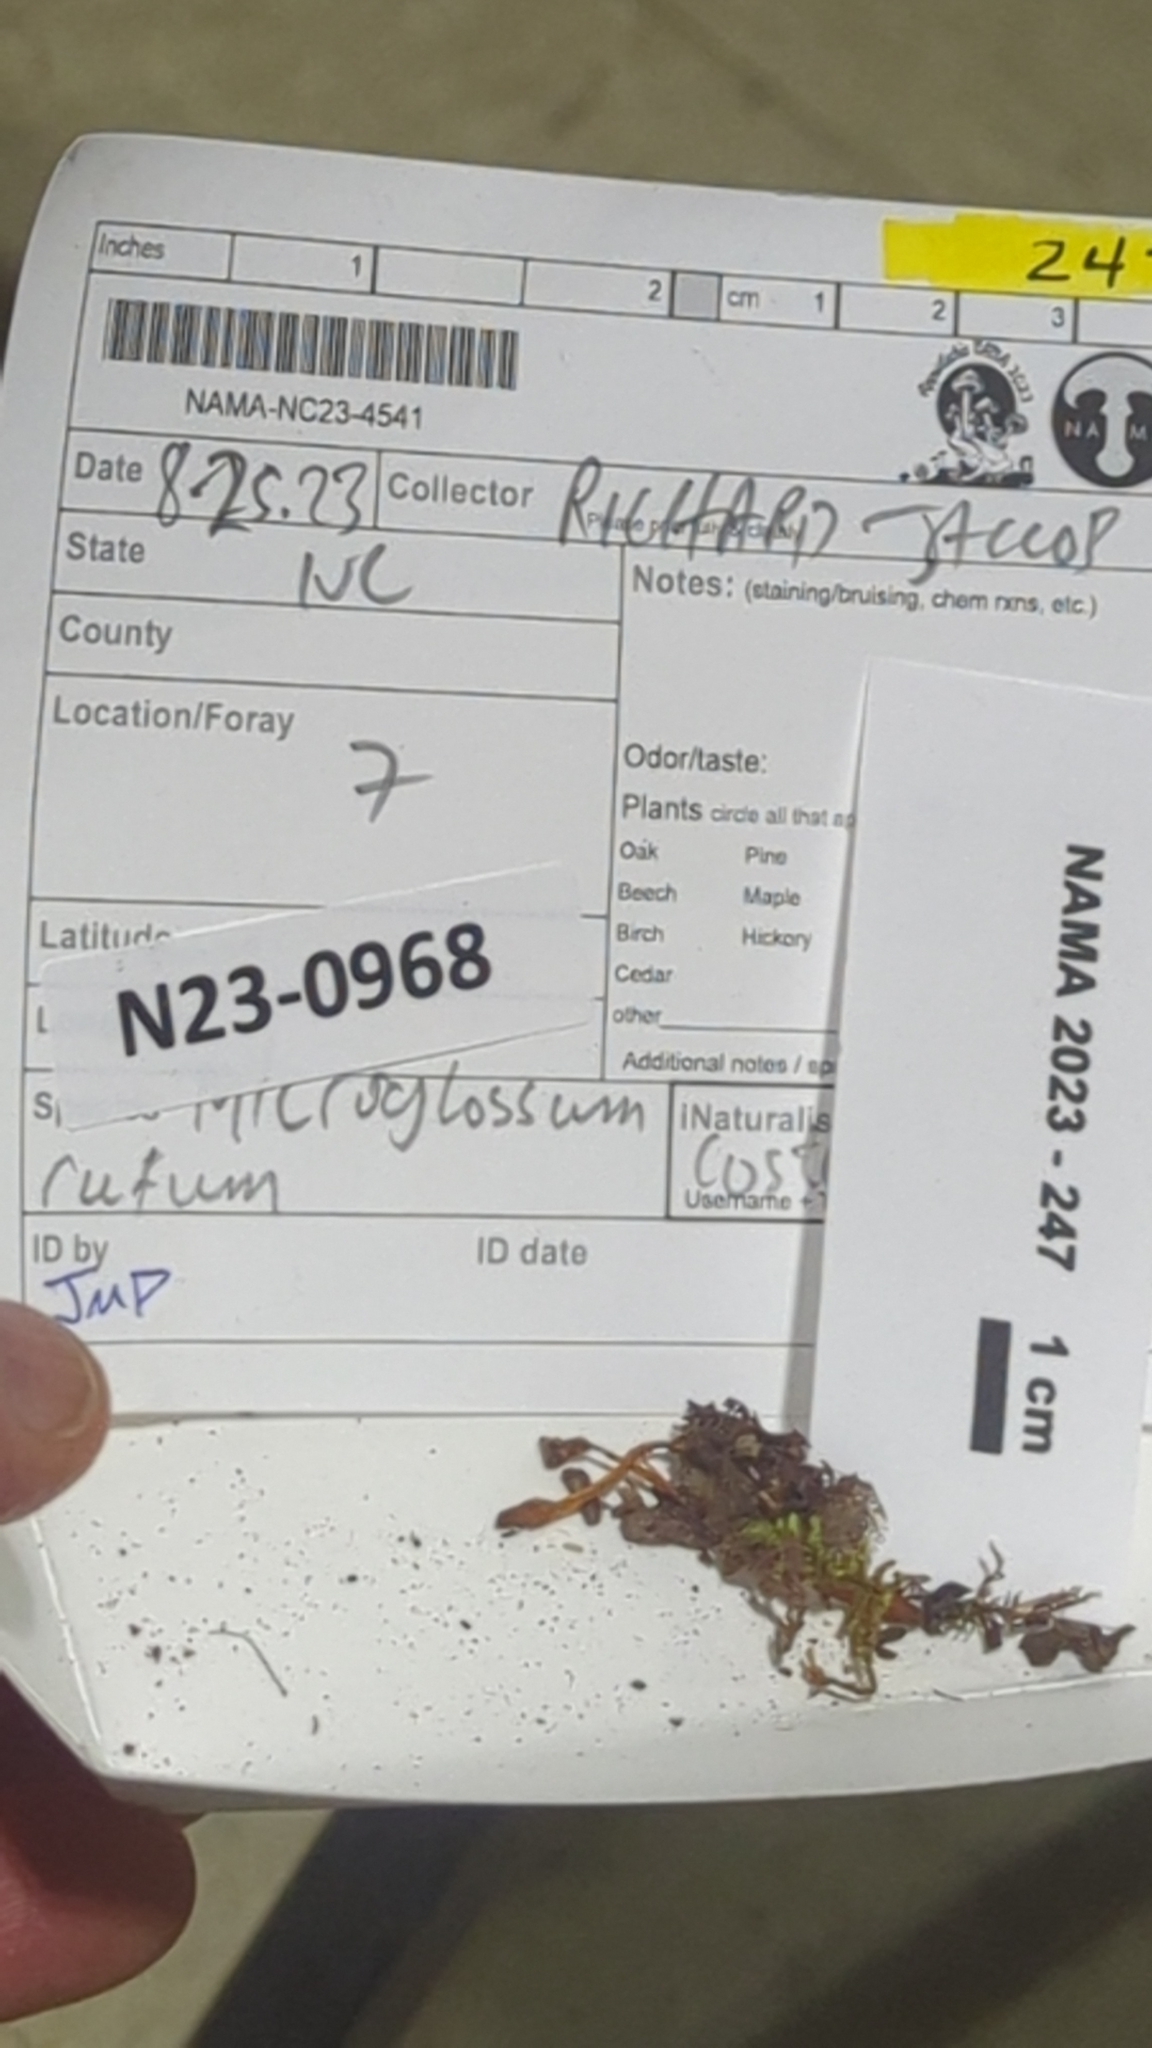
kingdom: Fungi
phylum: Ascomycota
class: Leotiomycetes
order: Leotiales
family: Leotiaceae
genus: Microglossum
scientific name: Microglossum rufum
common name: Orange earthtongue
